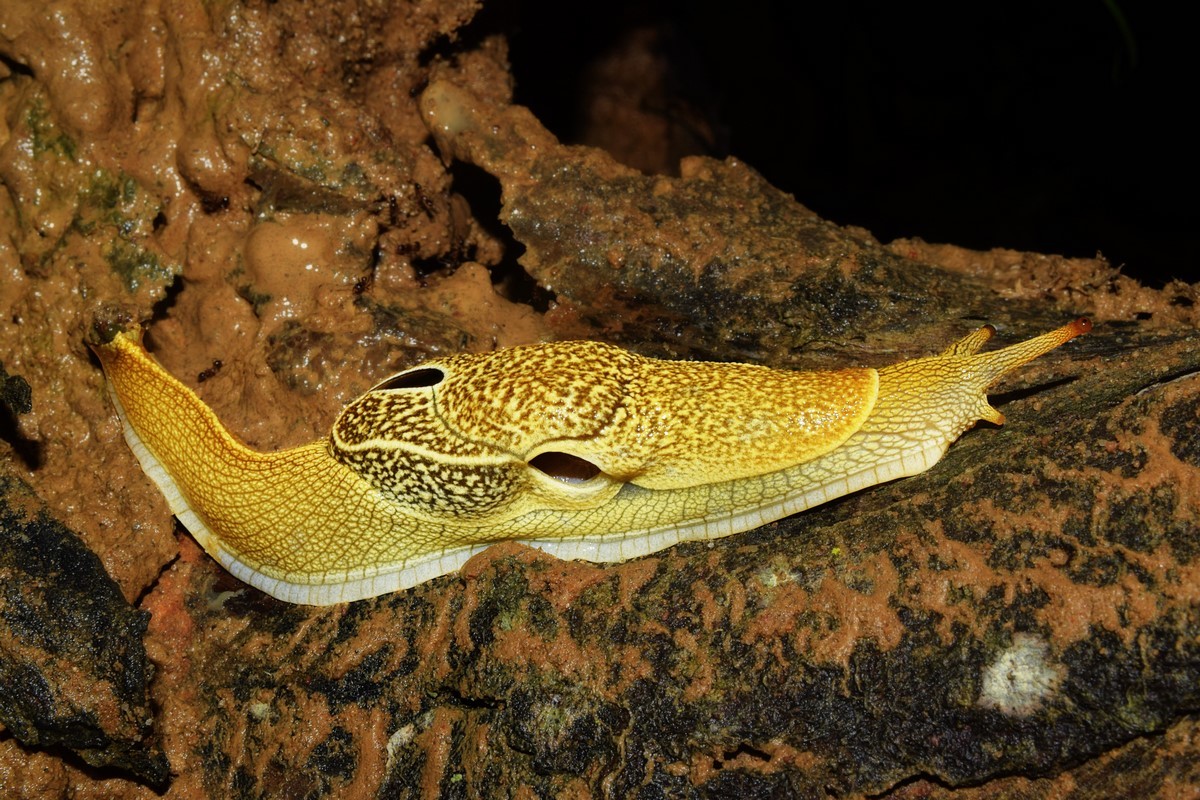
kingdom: Animalia
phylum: Mollusca
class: Gastropoda
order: Stylommatophora
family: Helicarionidae
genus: Girasia
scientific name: Girasia crocea
